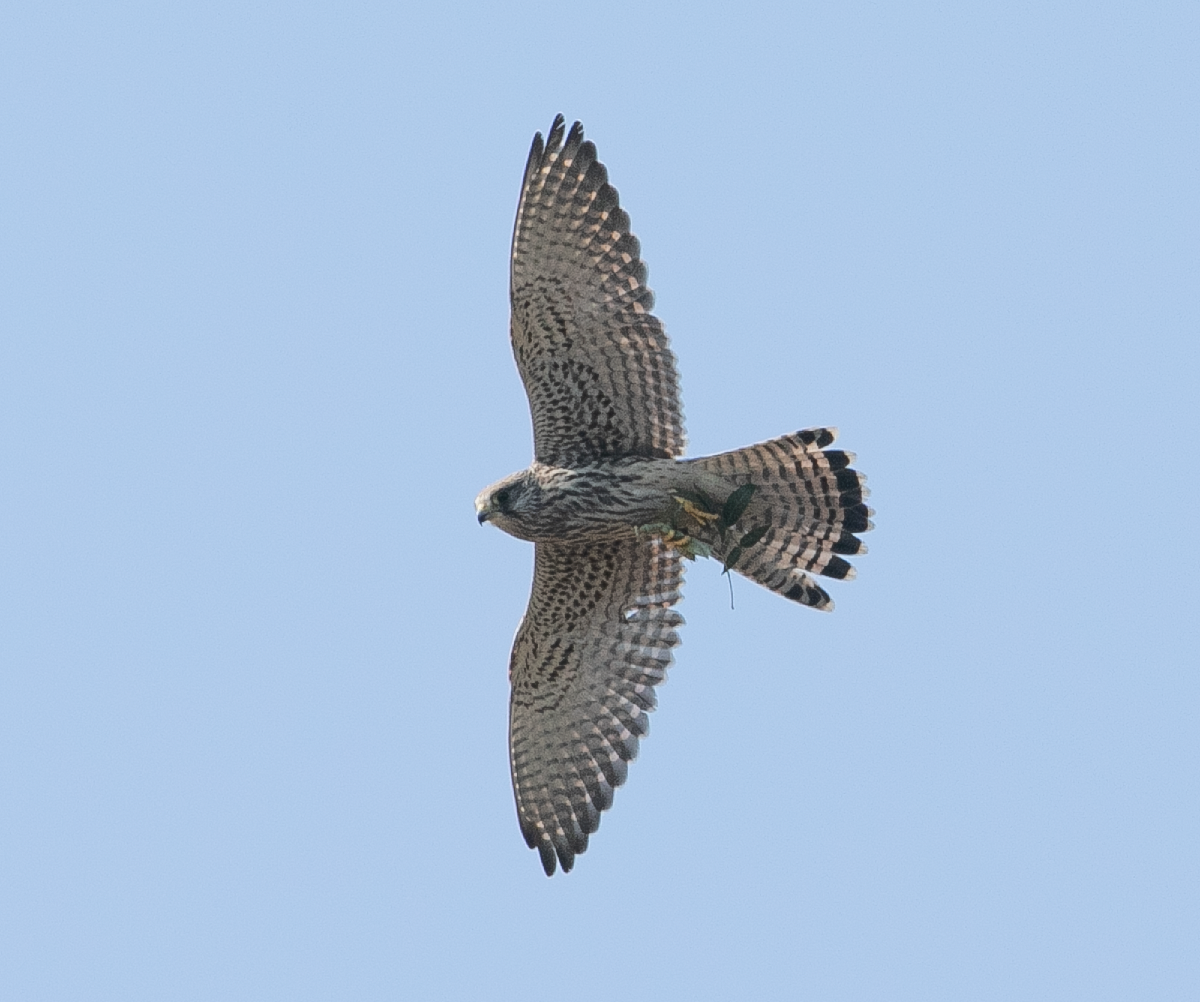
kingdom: Animalia
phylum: Chordata
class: Aves
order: Falconiformes
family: Falconidae
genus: Falco
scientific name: Falco tinnunculus
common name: Common kestrel
